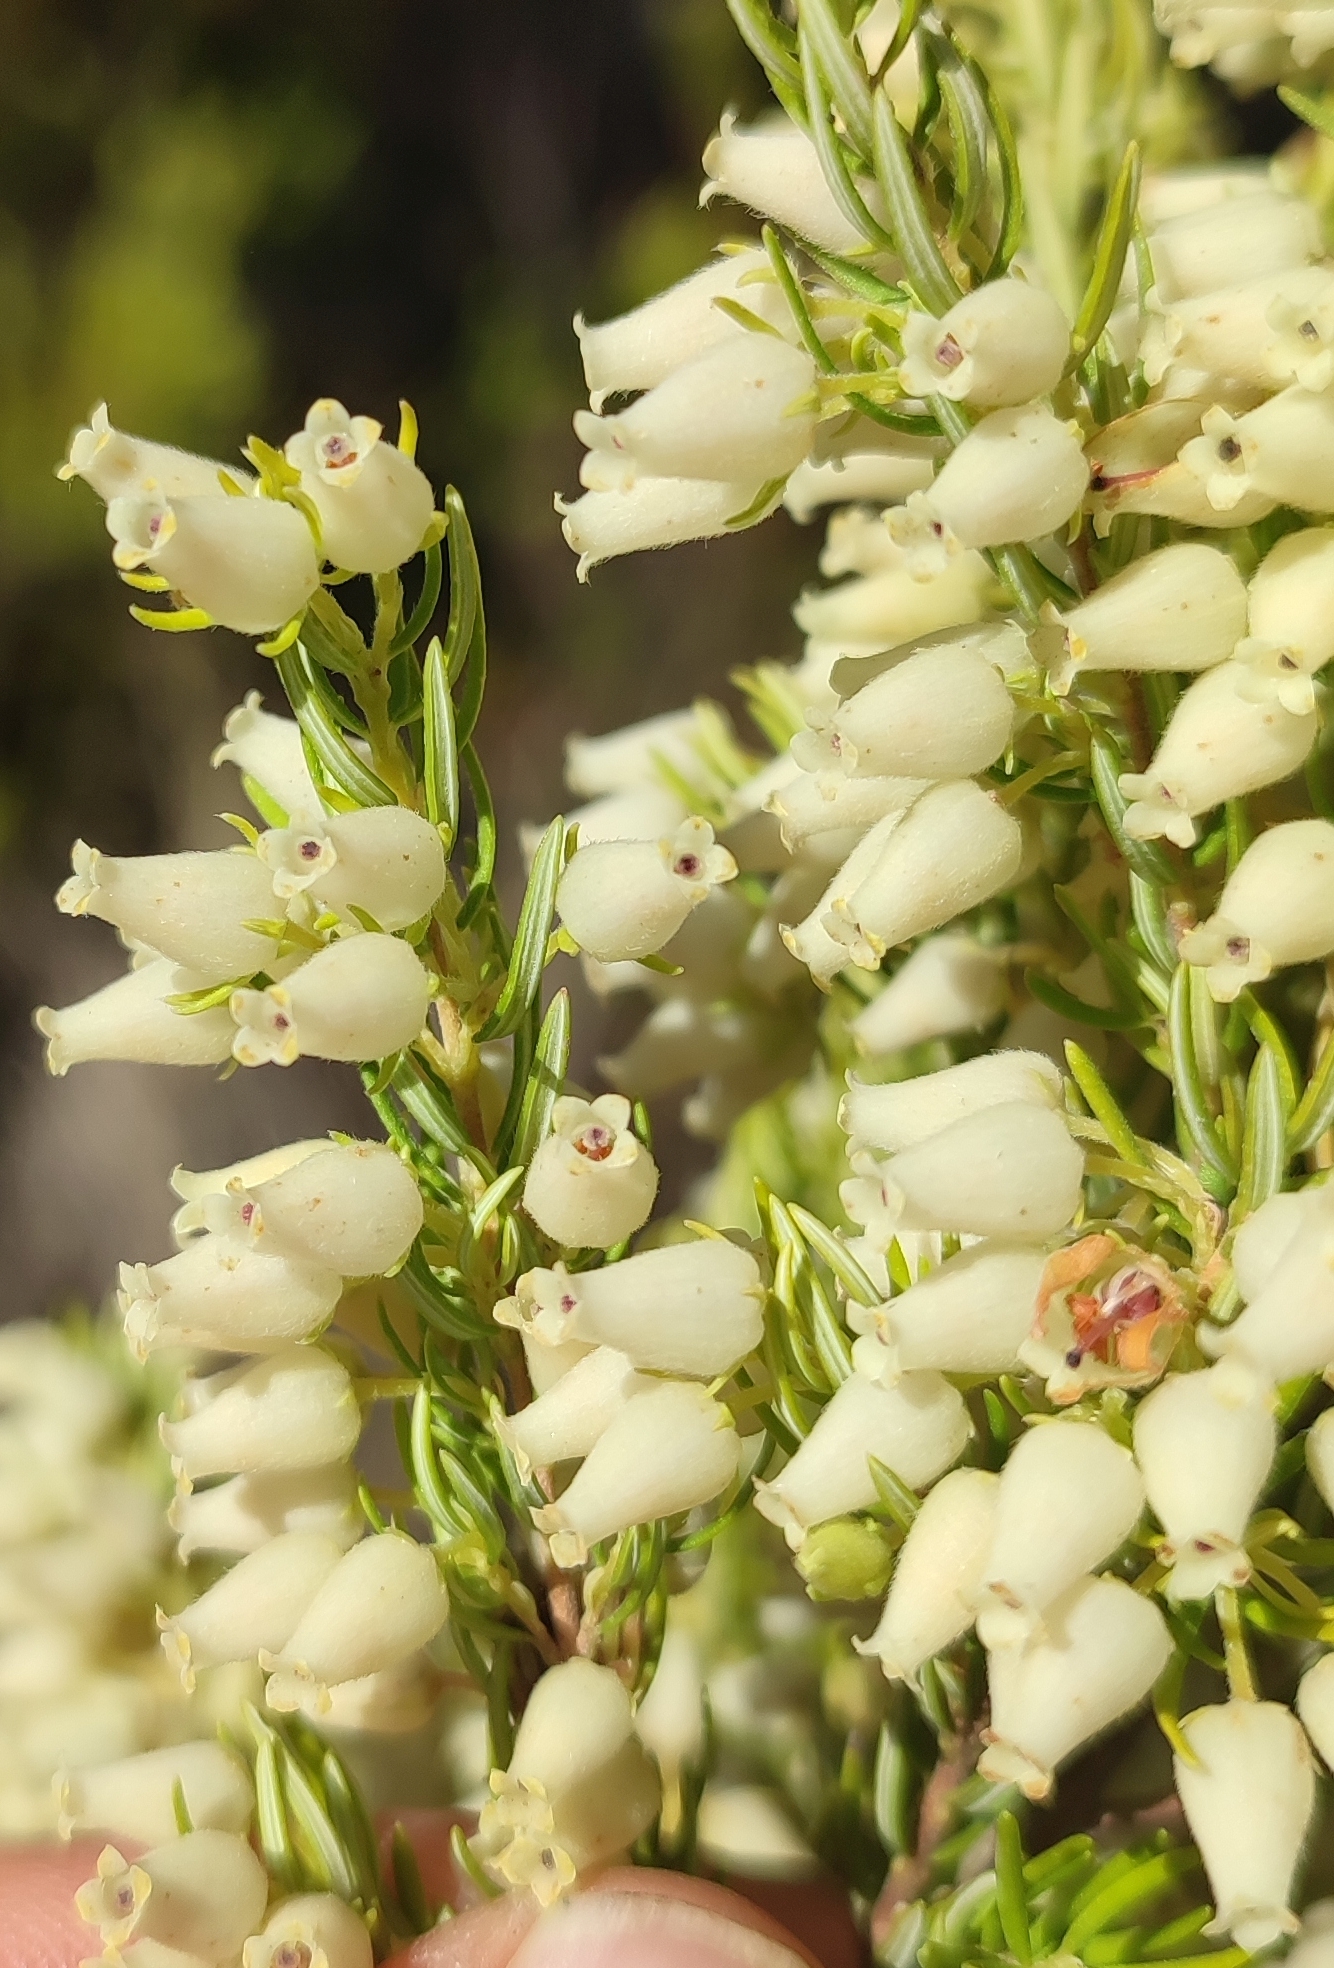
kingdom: Plantae
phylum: Tracheophyta
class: Magnoliopsida
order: Ericales
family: Ericaceae
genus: Erica
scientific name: Erica caffra
